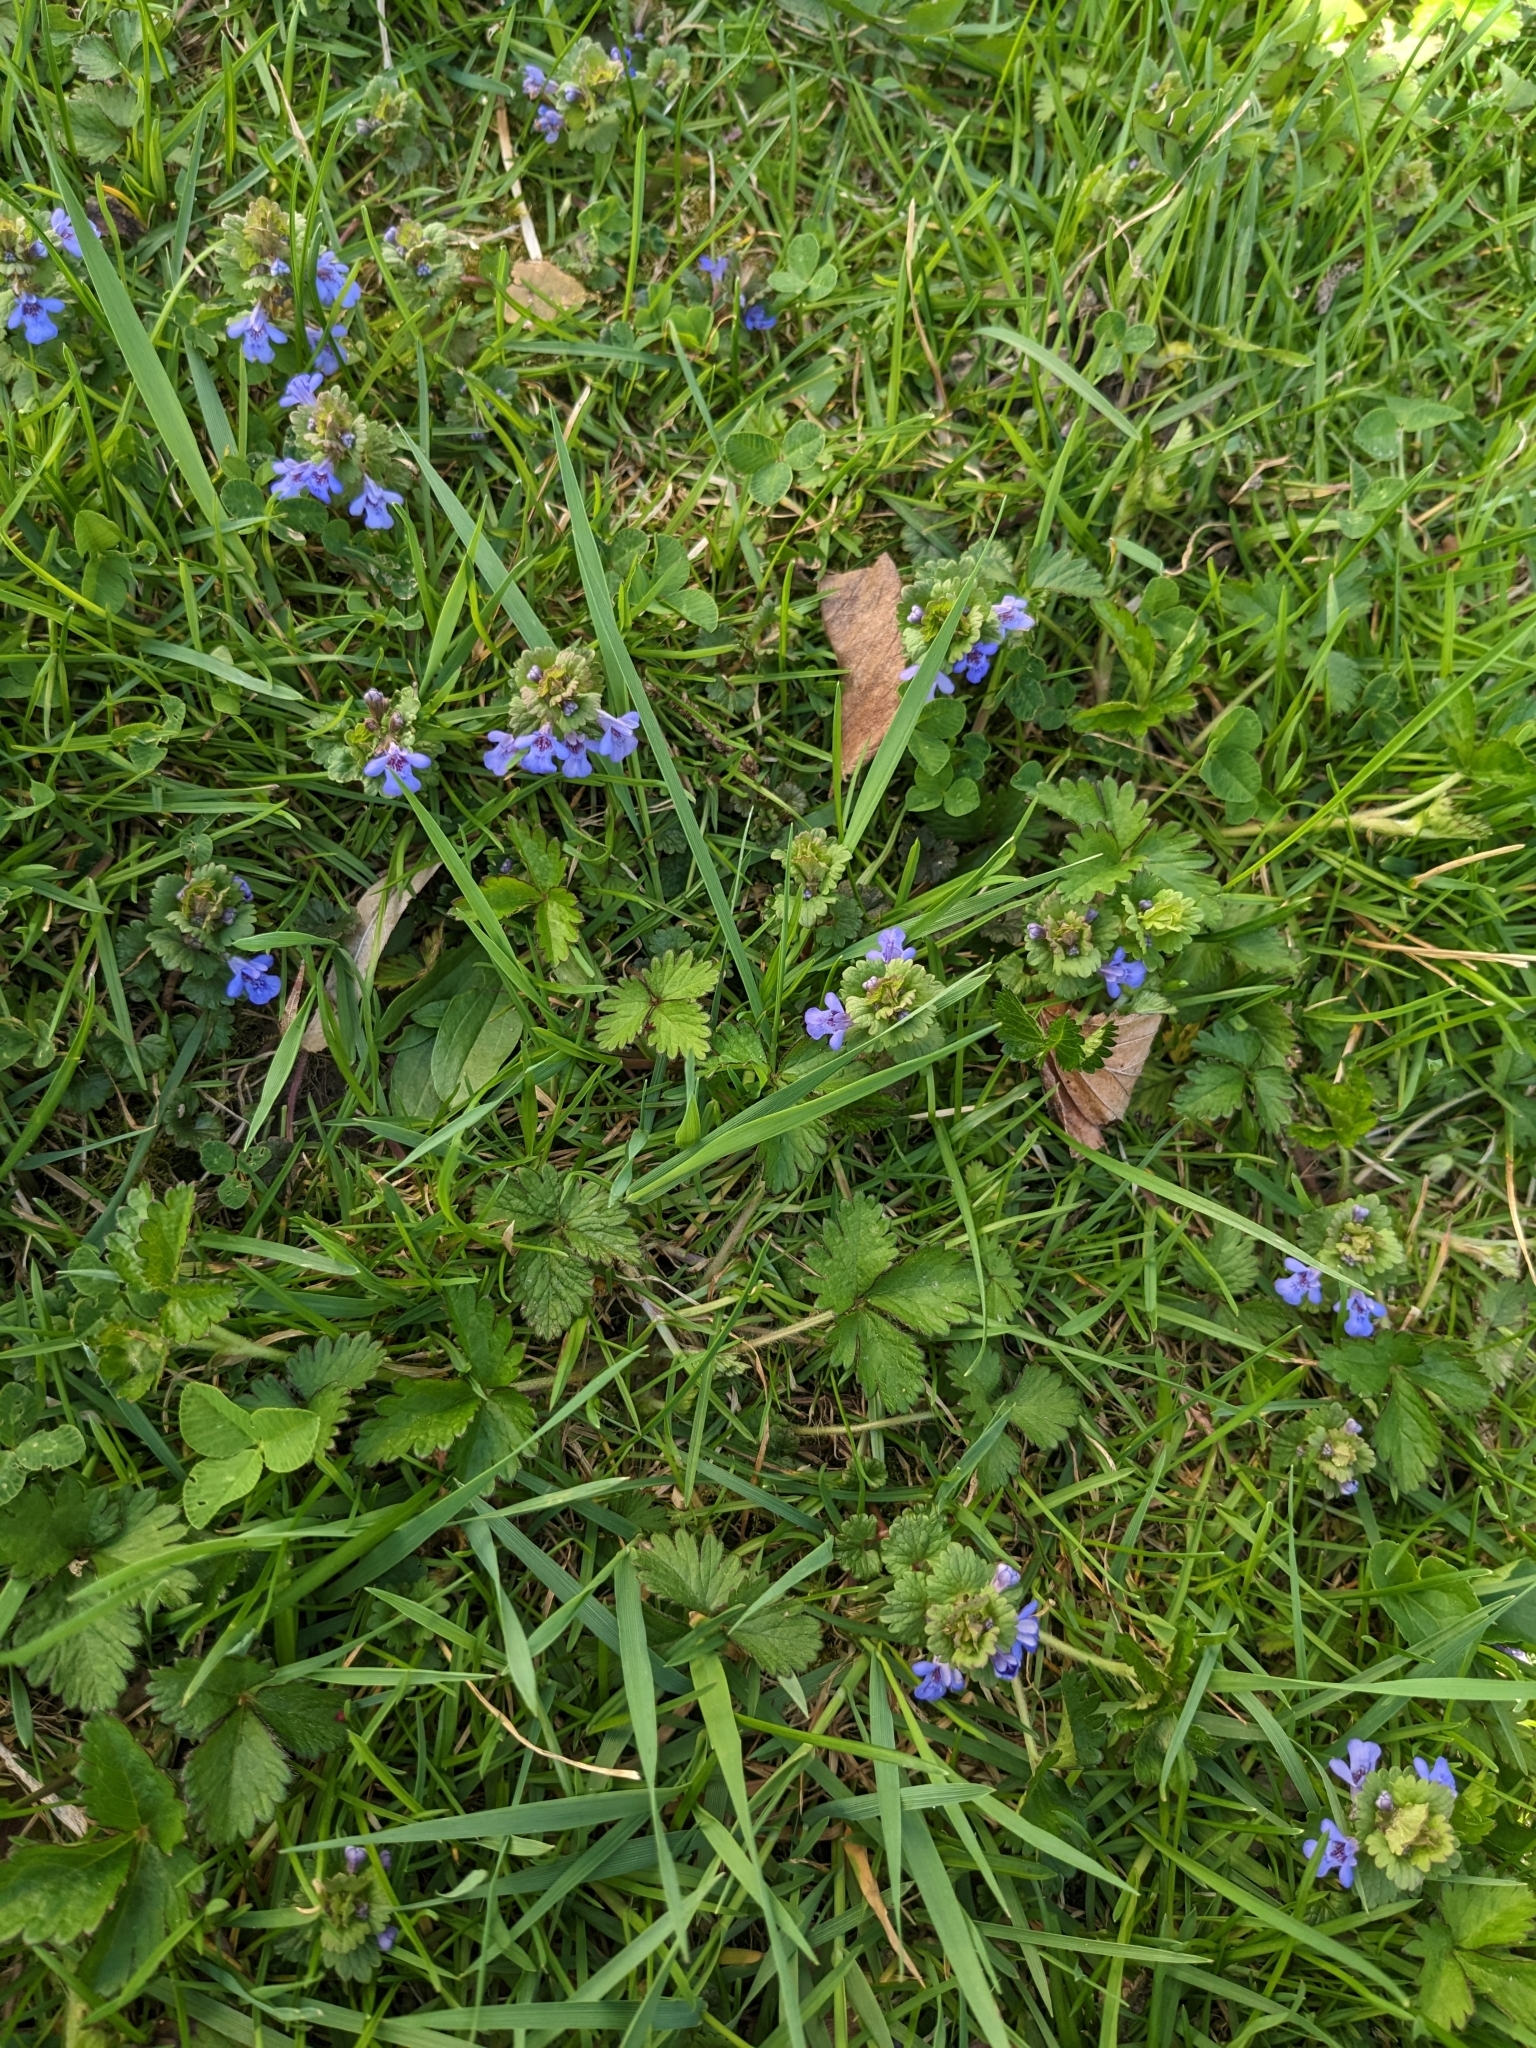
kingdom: Plantae
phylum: Tracheophyta
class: Magnoliopsida
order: Lamiales
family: Lamiaceae
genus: Glechoma
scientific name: Glechoma hederacea
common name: Ground ivy
